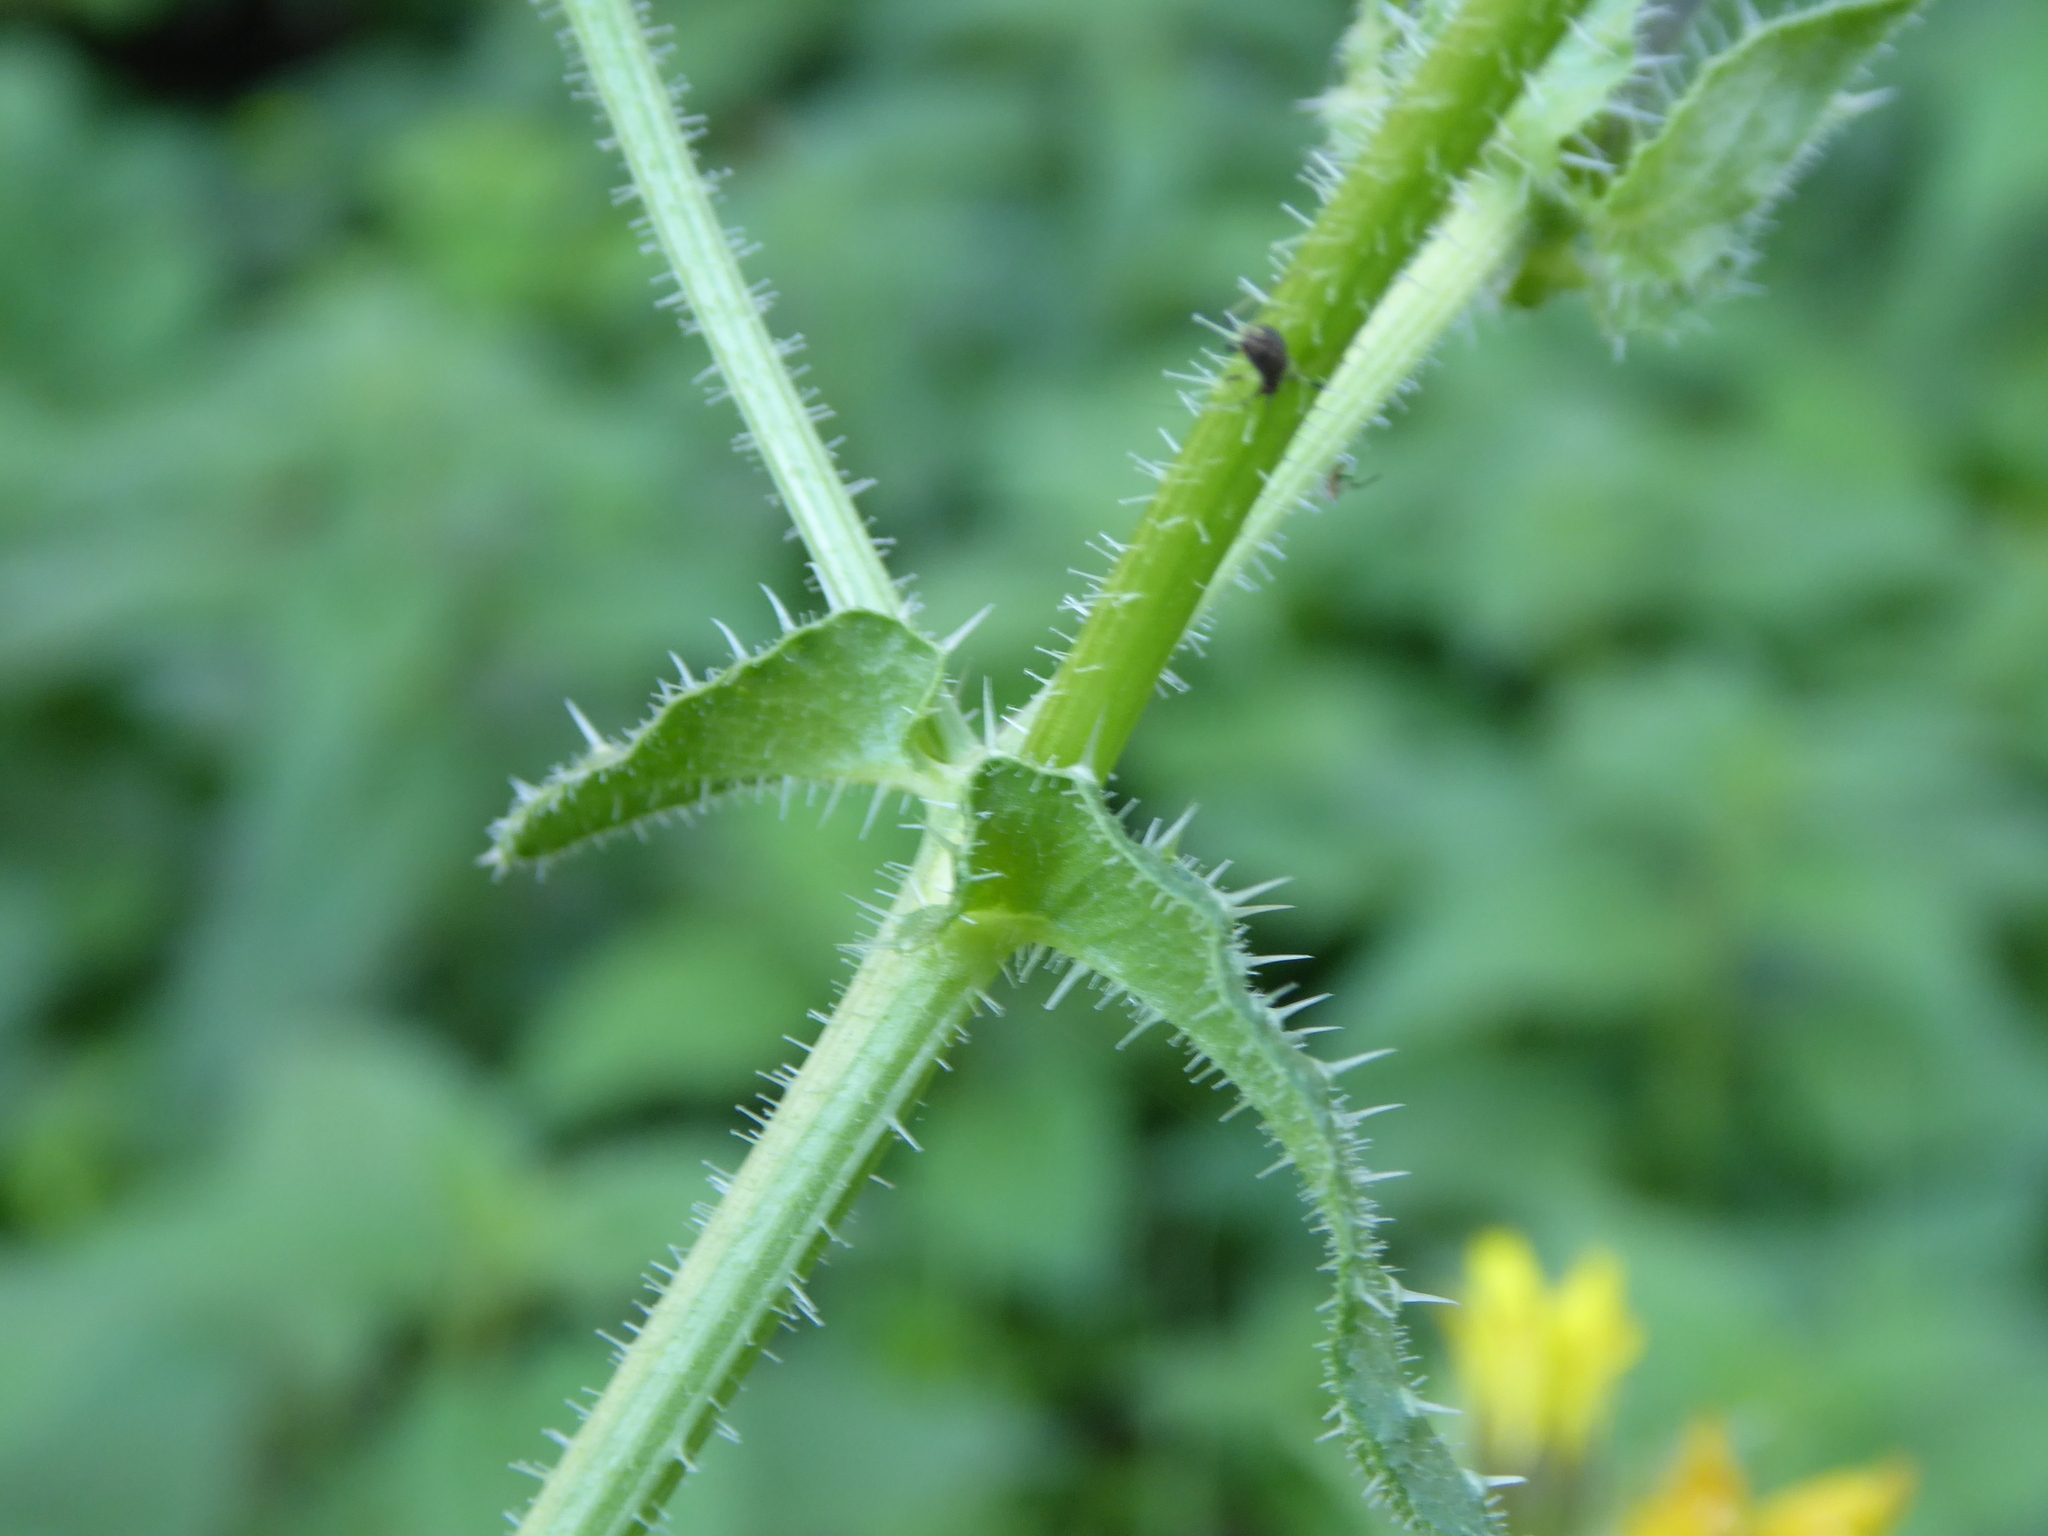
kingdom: Plantae
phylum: Tracheophyta
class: Magnoliopsida
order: Asterales
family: Asteraceae
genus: Helminthotheca
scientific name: Helminthotheca echioides
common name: Ox-tongue
